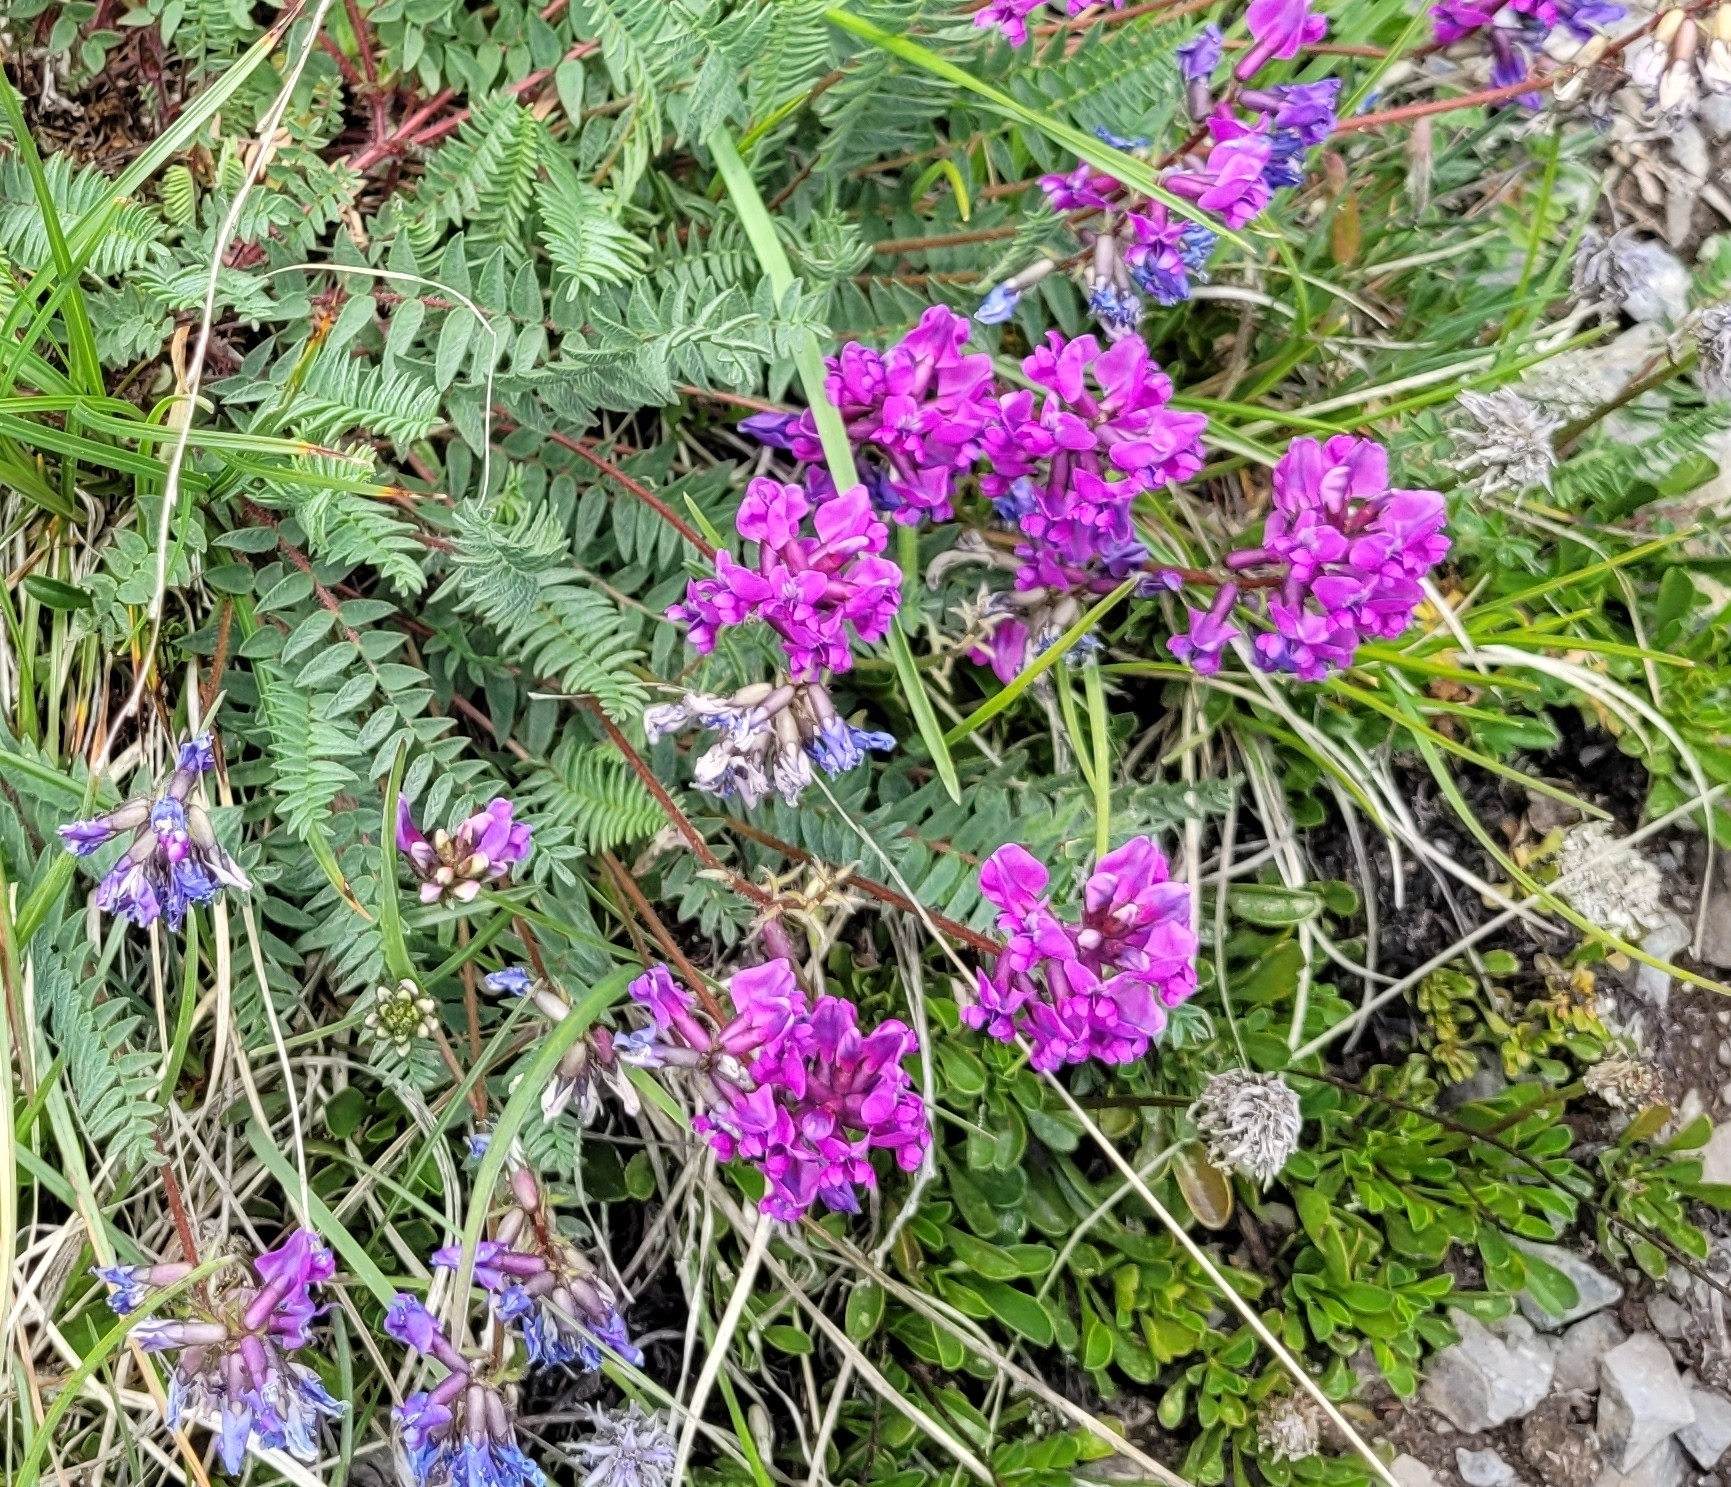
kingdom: Plantae
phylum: Tracheophyta
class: Magnoliopsida
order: Fabales
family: Fabaceae
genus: Oxytropis
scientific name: Oxytropis montana
